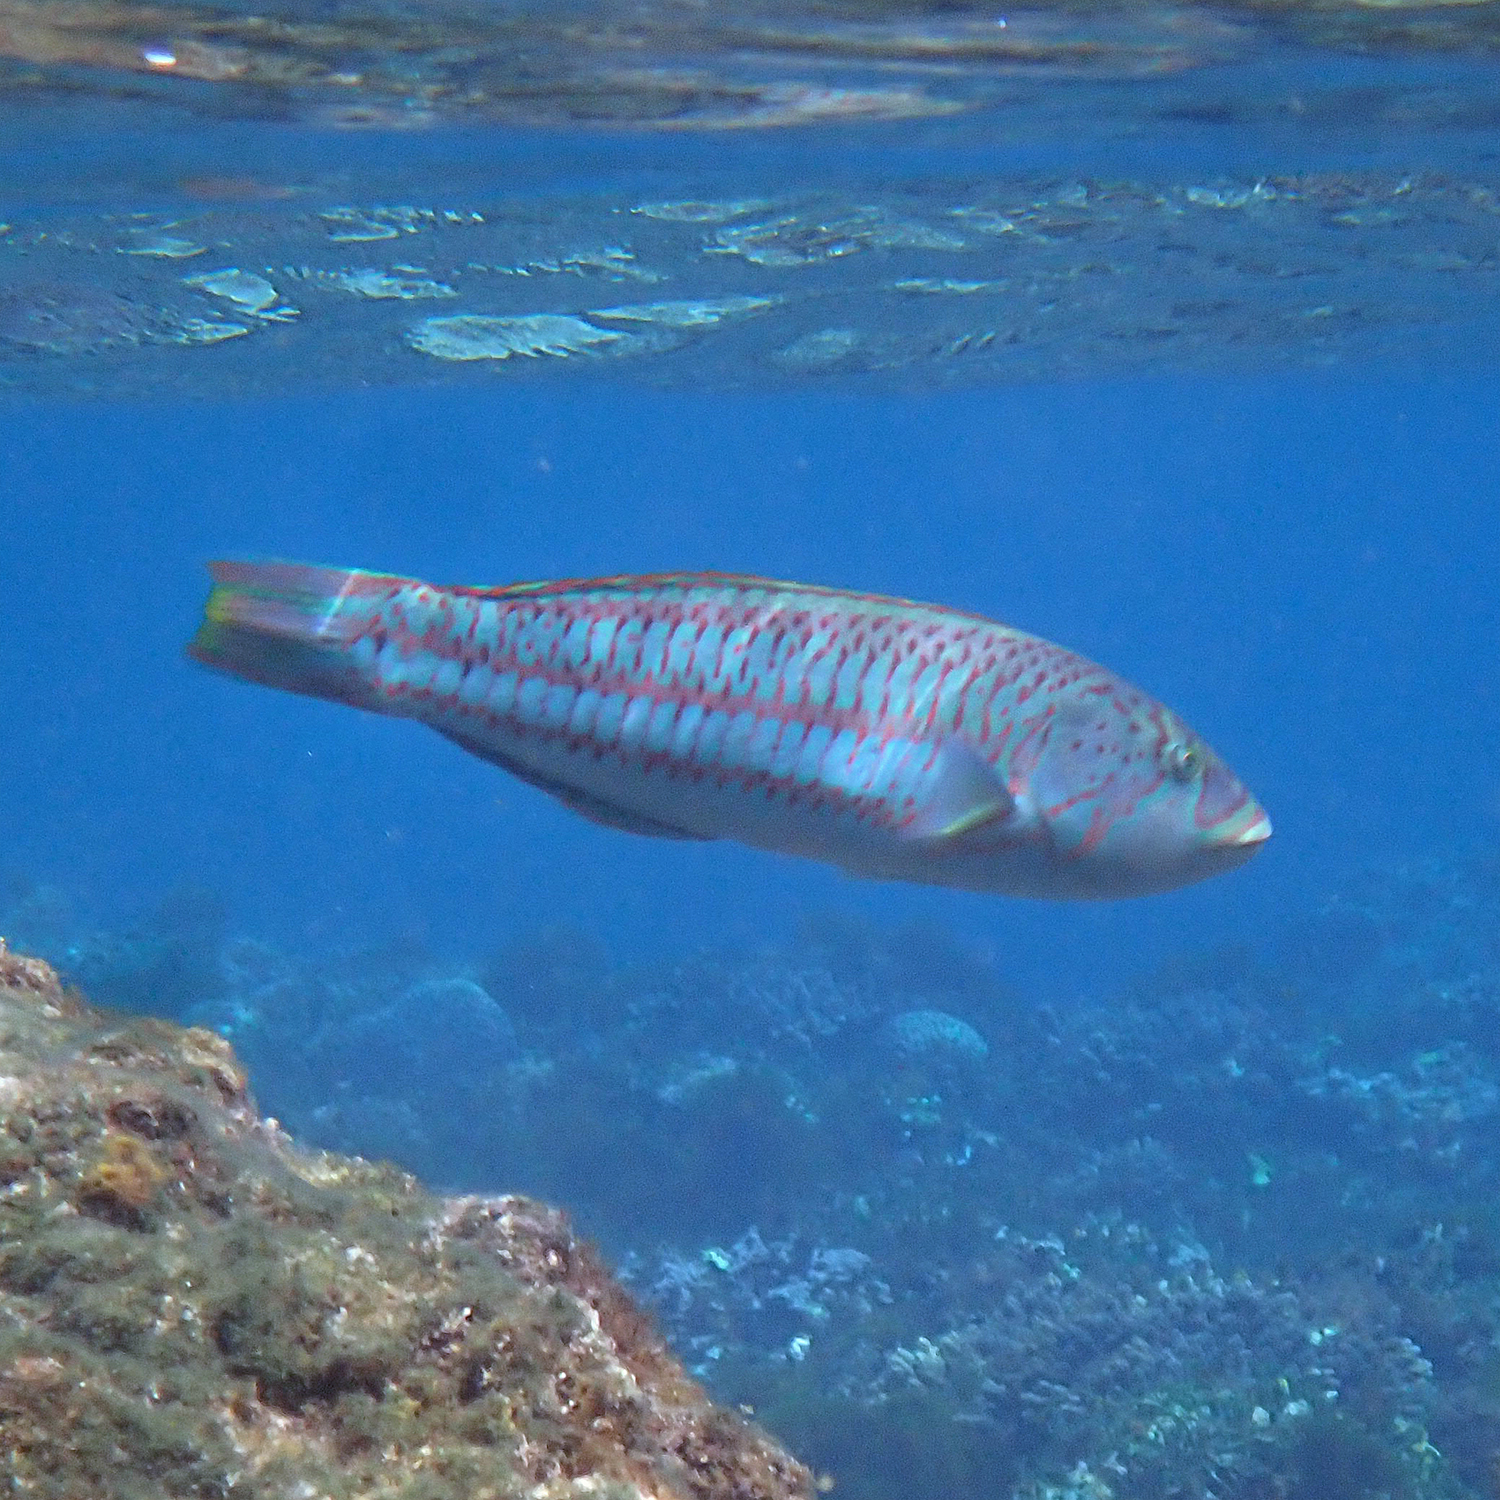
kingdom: Animalia
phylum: Chordata
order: Perciformes
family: Labridae
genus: Thalassoma
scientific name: Thalassoma purpureum
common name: Parrotfish
